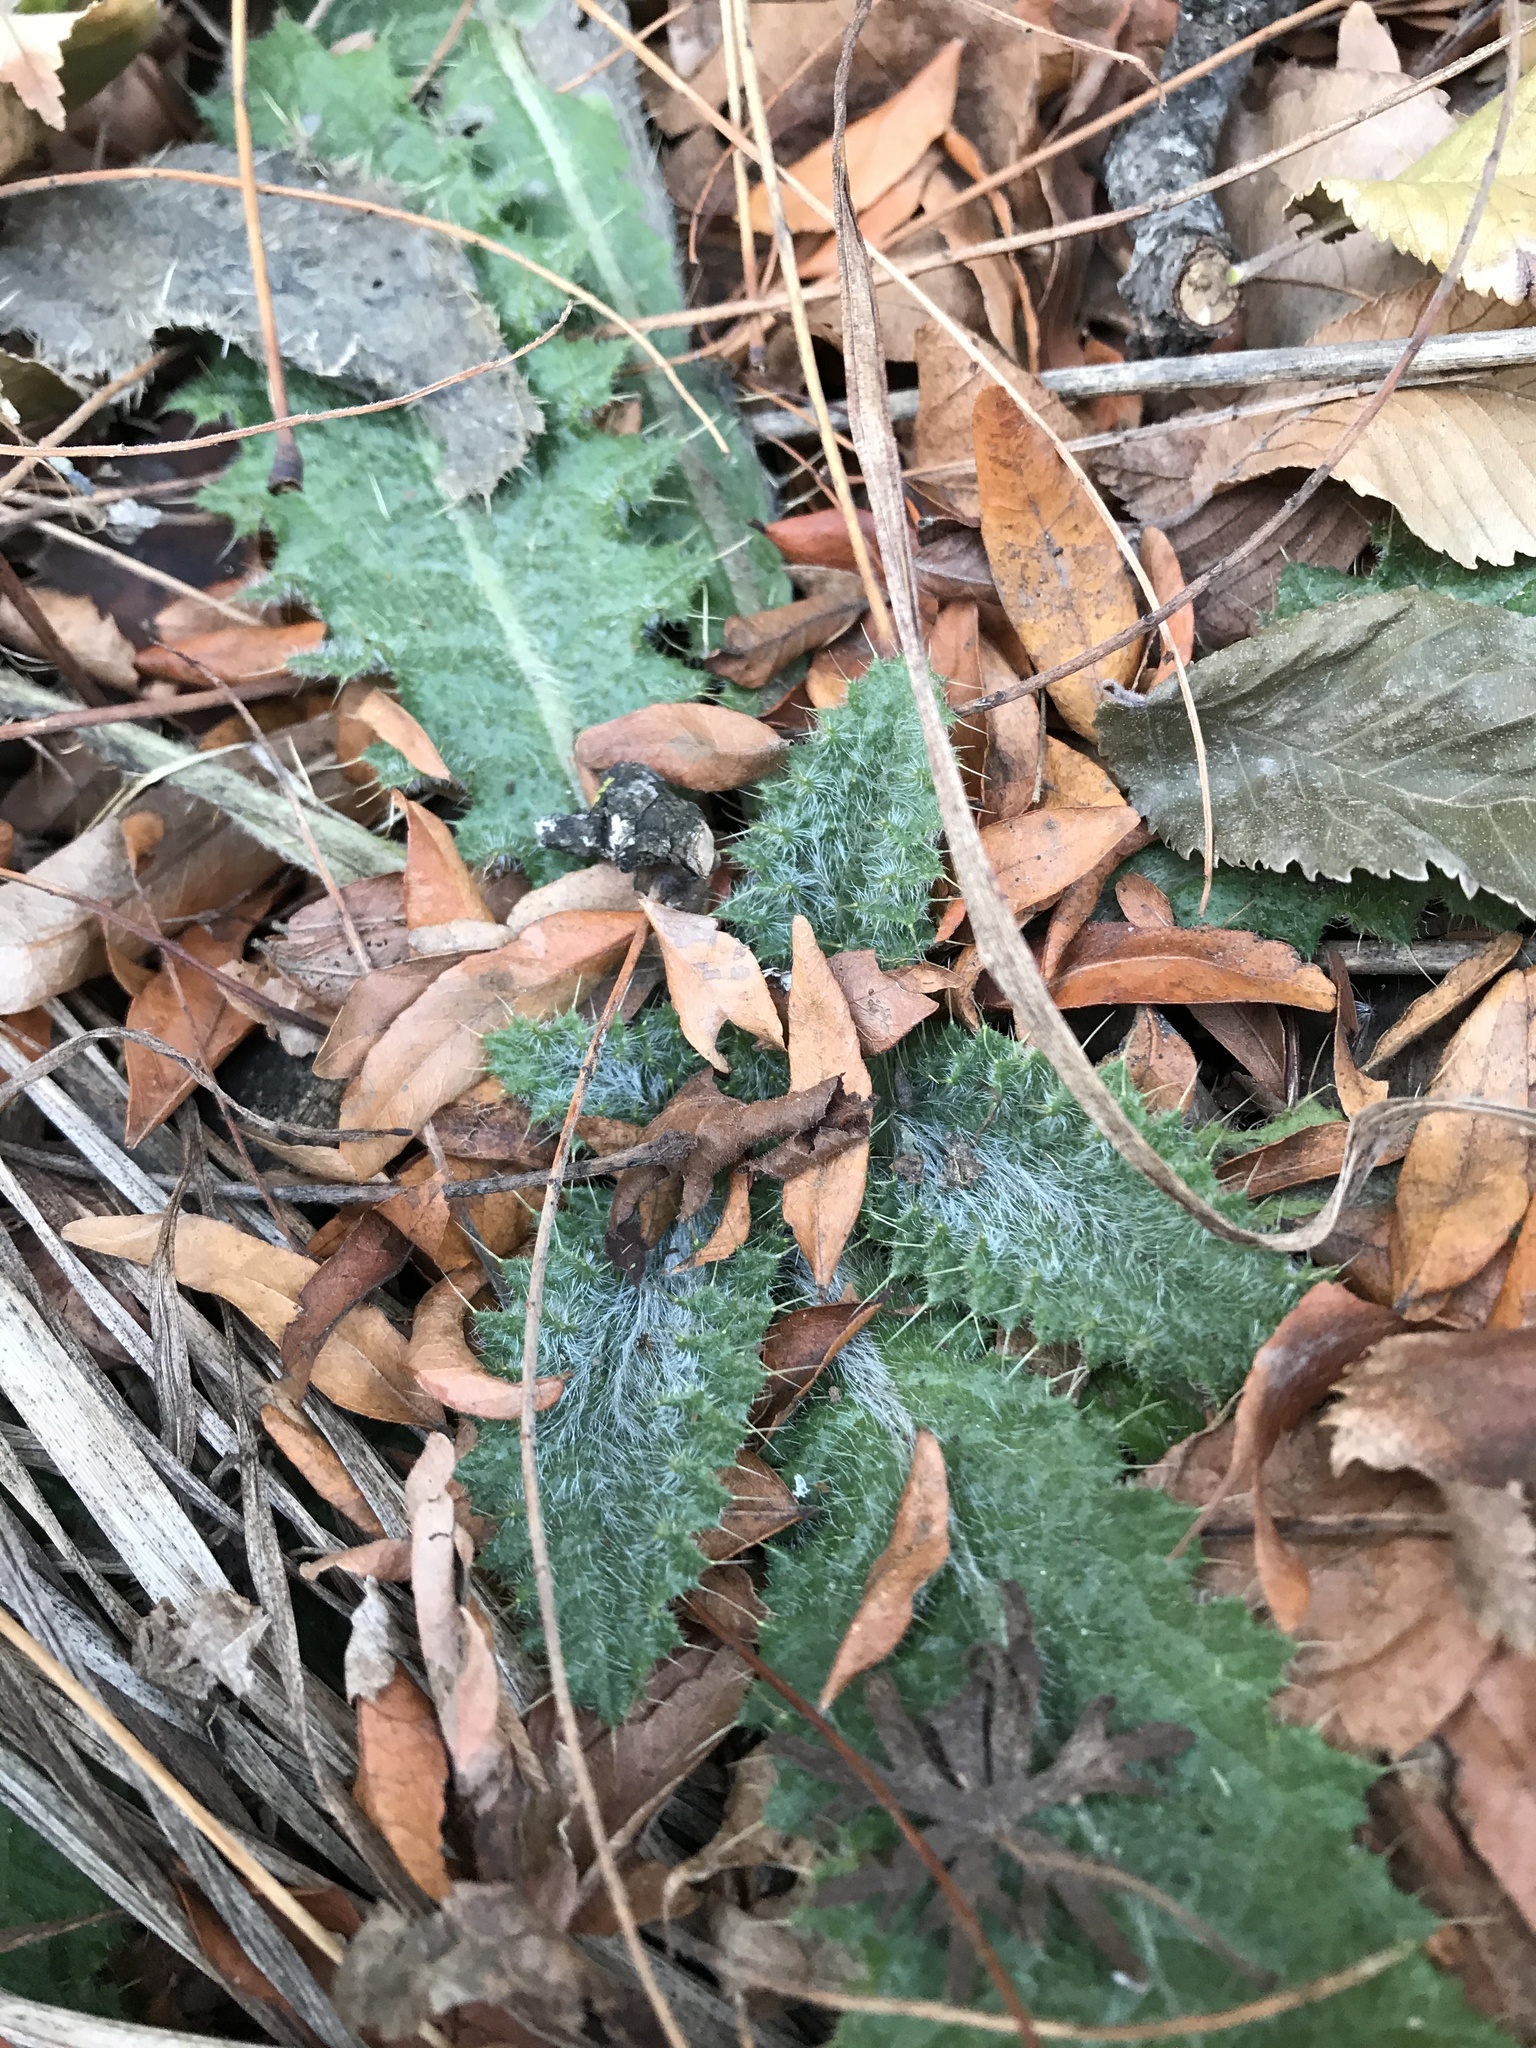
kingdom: Plantae
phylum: Tracheophyta
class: Magnoliopsida
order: Asterales
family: Asteraceae
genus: Cirsium
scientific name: Cirsium vulgare
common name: Bull thistle
